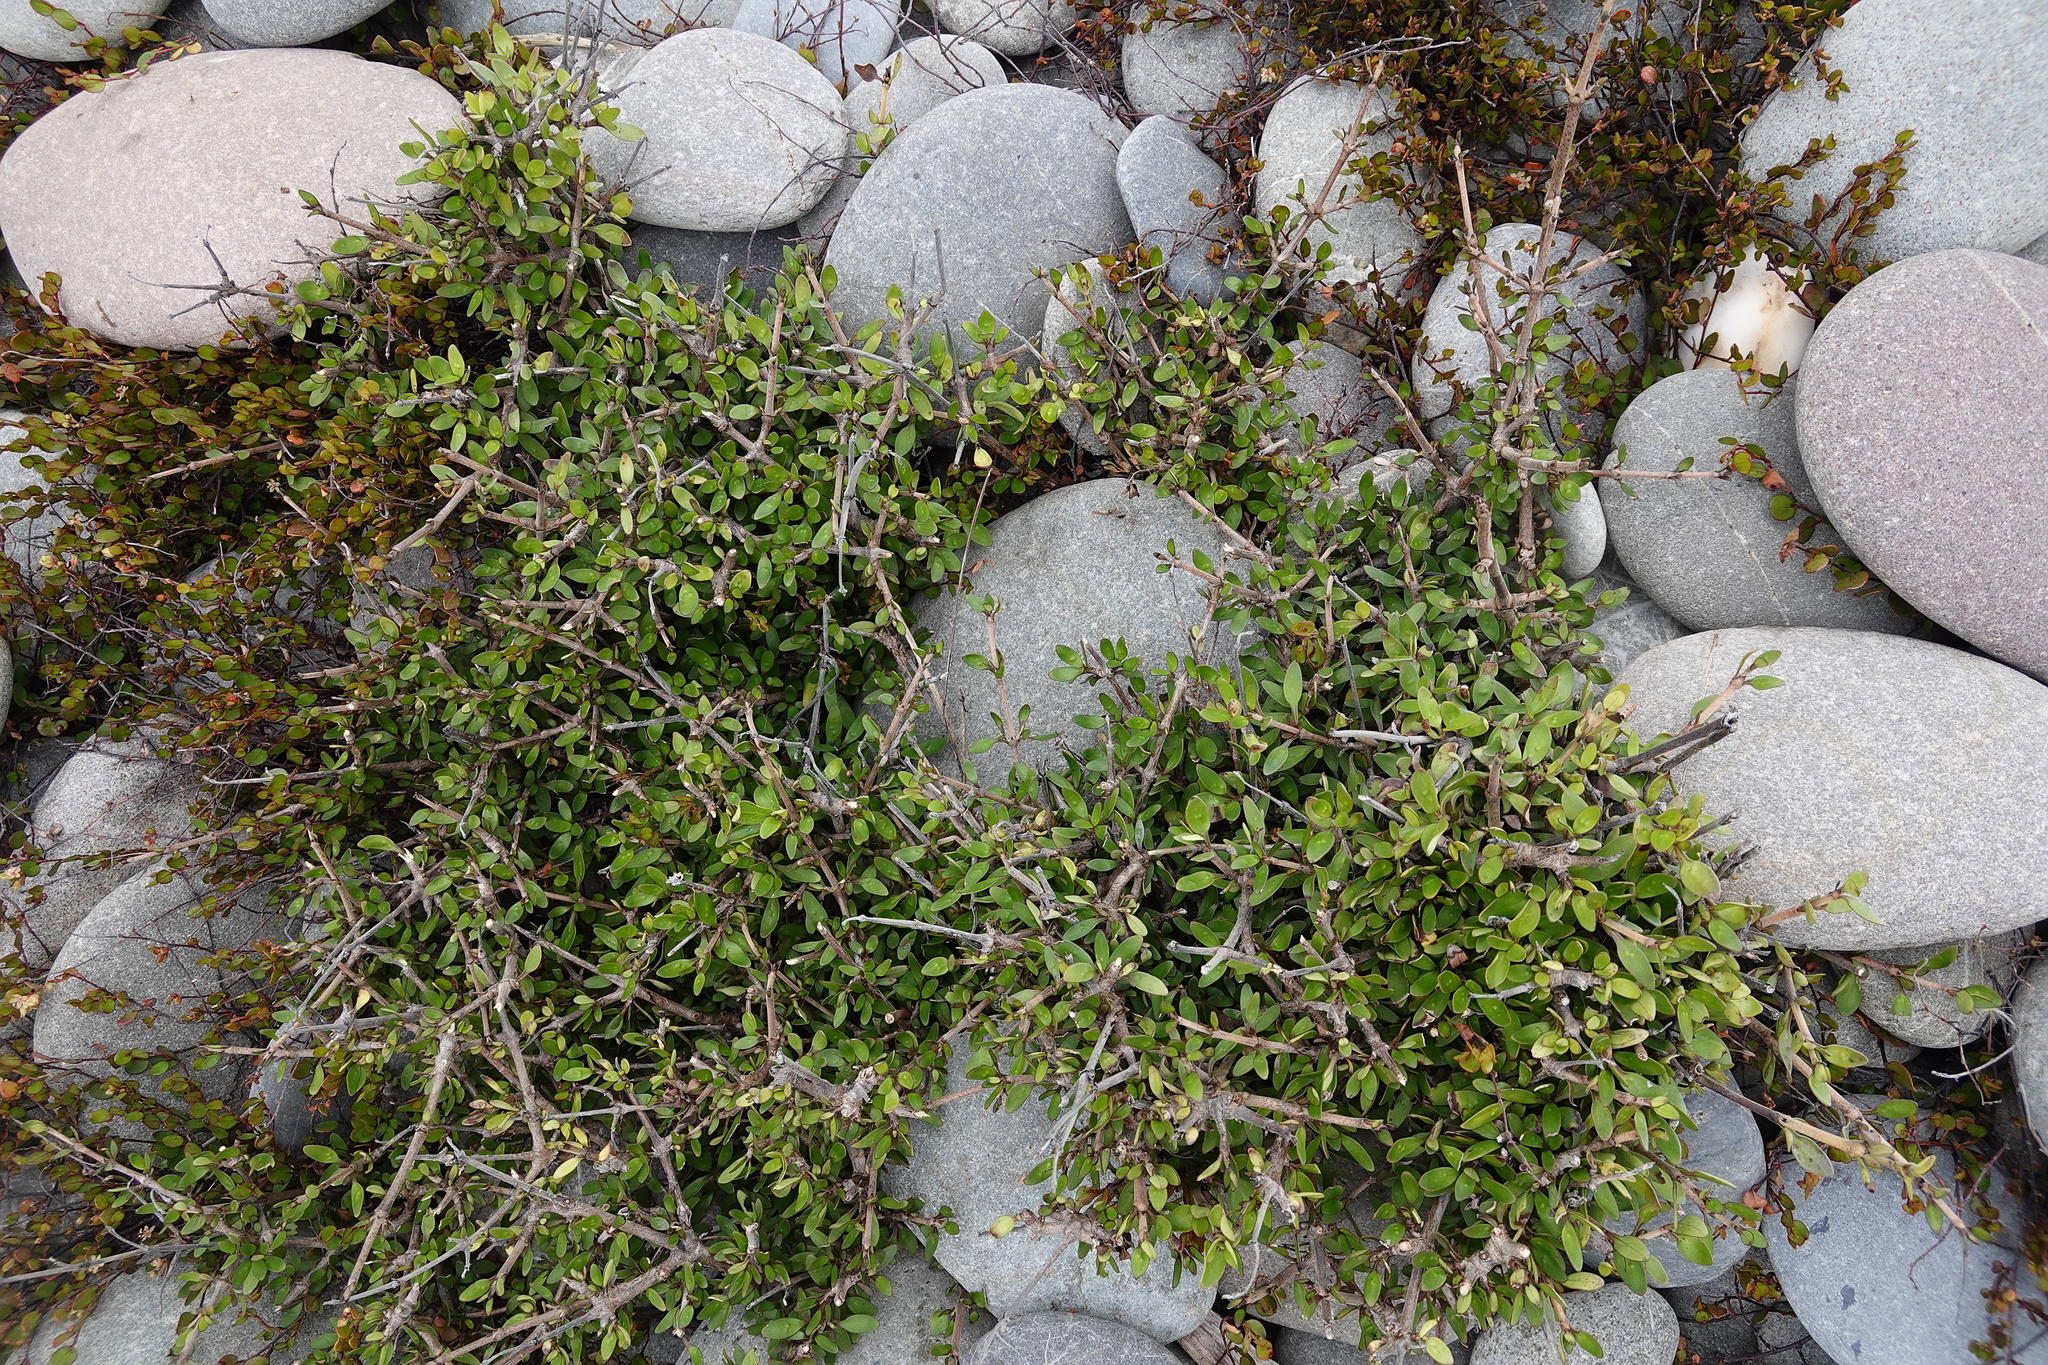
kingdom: Plantae
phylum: Tracheophyta
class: Magnoliopsida
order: Gentianales
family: Rubiaceae
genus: Coprosma
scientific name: Coprosma propinqua
